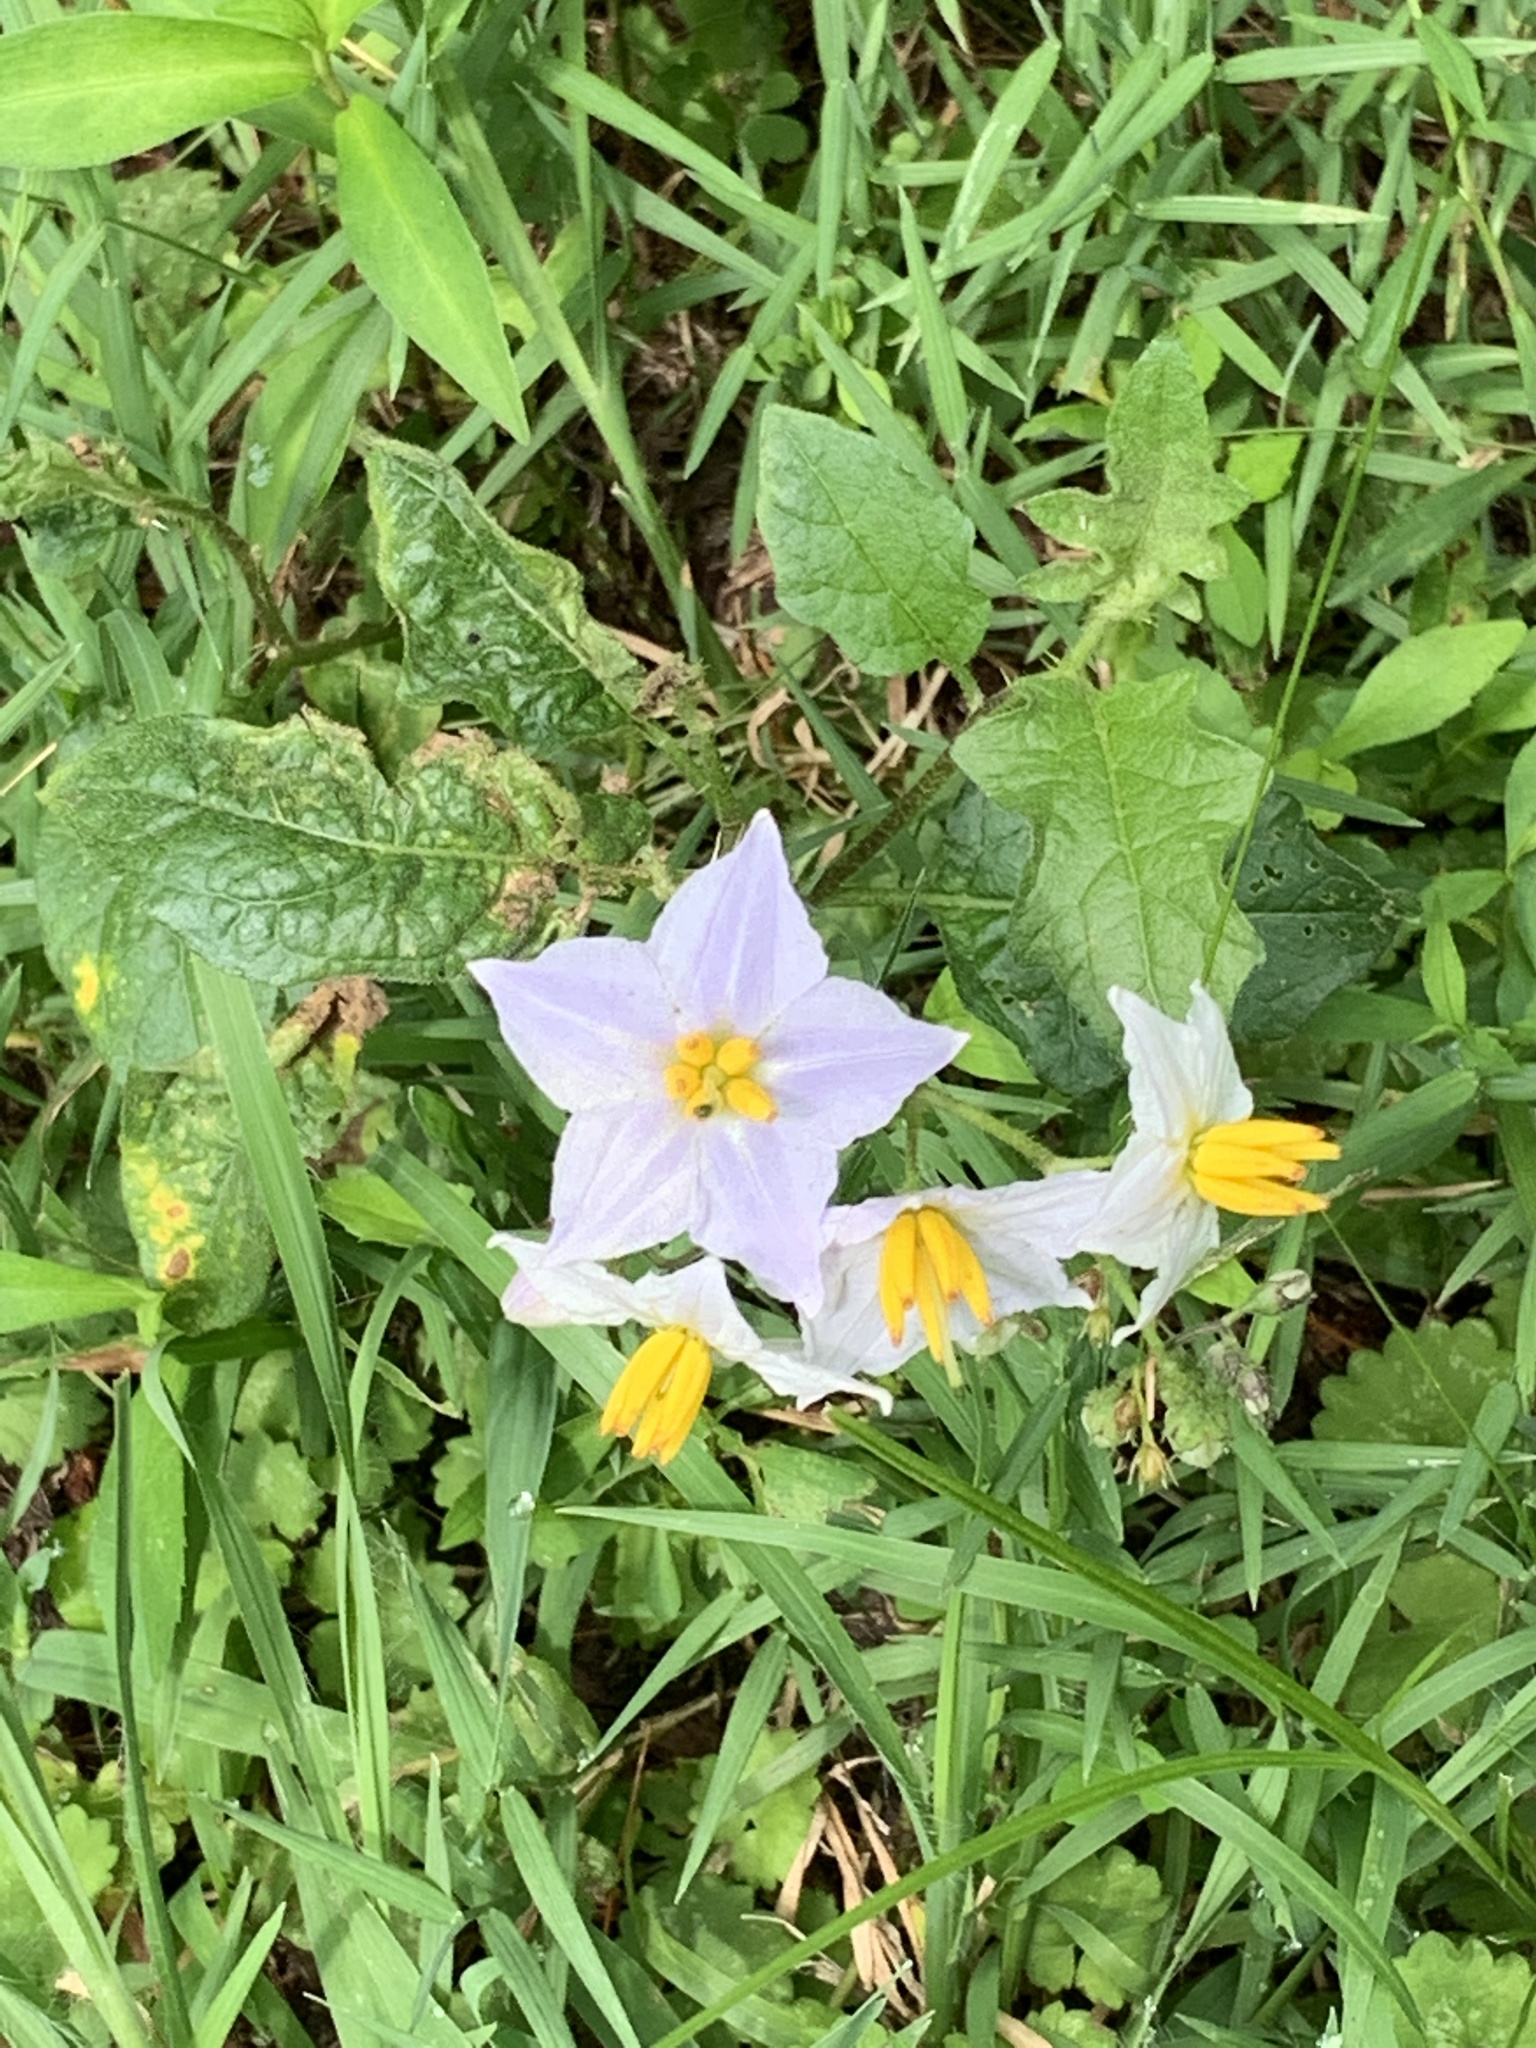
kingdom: Plantae
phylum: Tracheophyta
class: Magnoliopsida
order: Solanales
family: Solanaceae
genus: Solanum
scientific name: Solanum carolinense
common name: Horse-nettle
